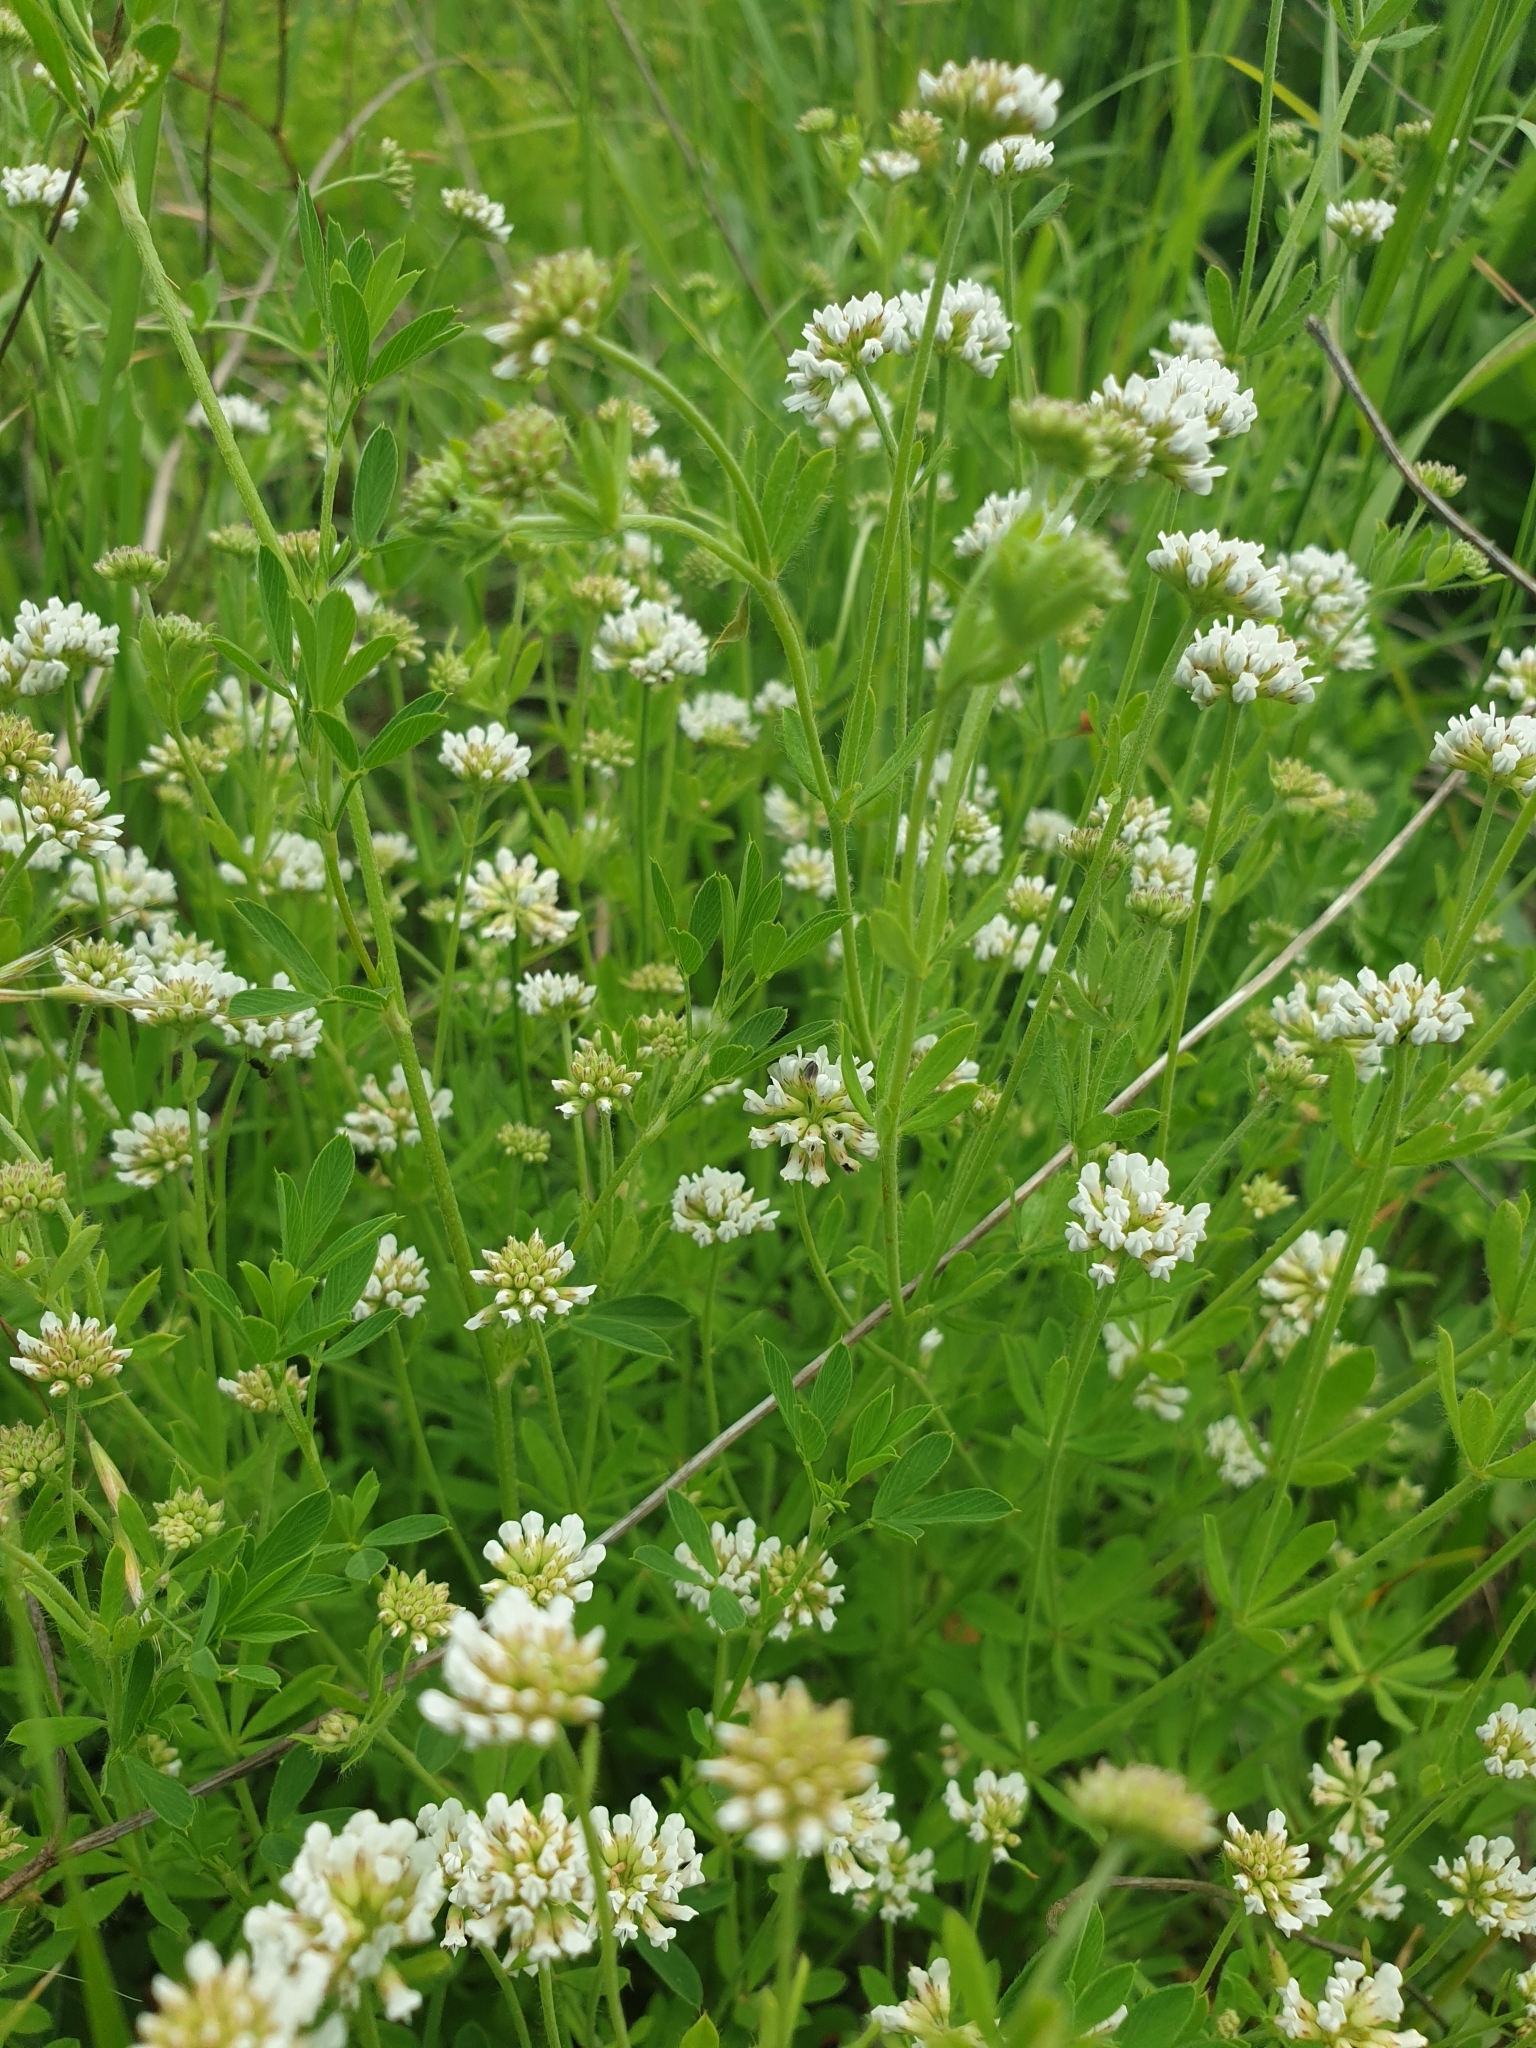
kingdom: Plantae
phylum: Tracheophyta
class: Magnoliopsida
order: Fabales
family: Fabaceae
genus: Lotus
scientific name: Lotus herbaceus
